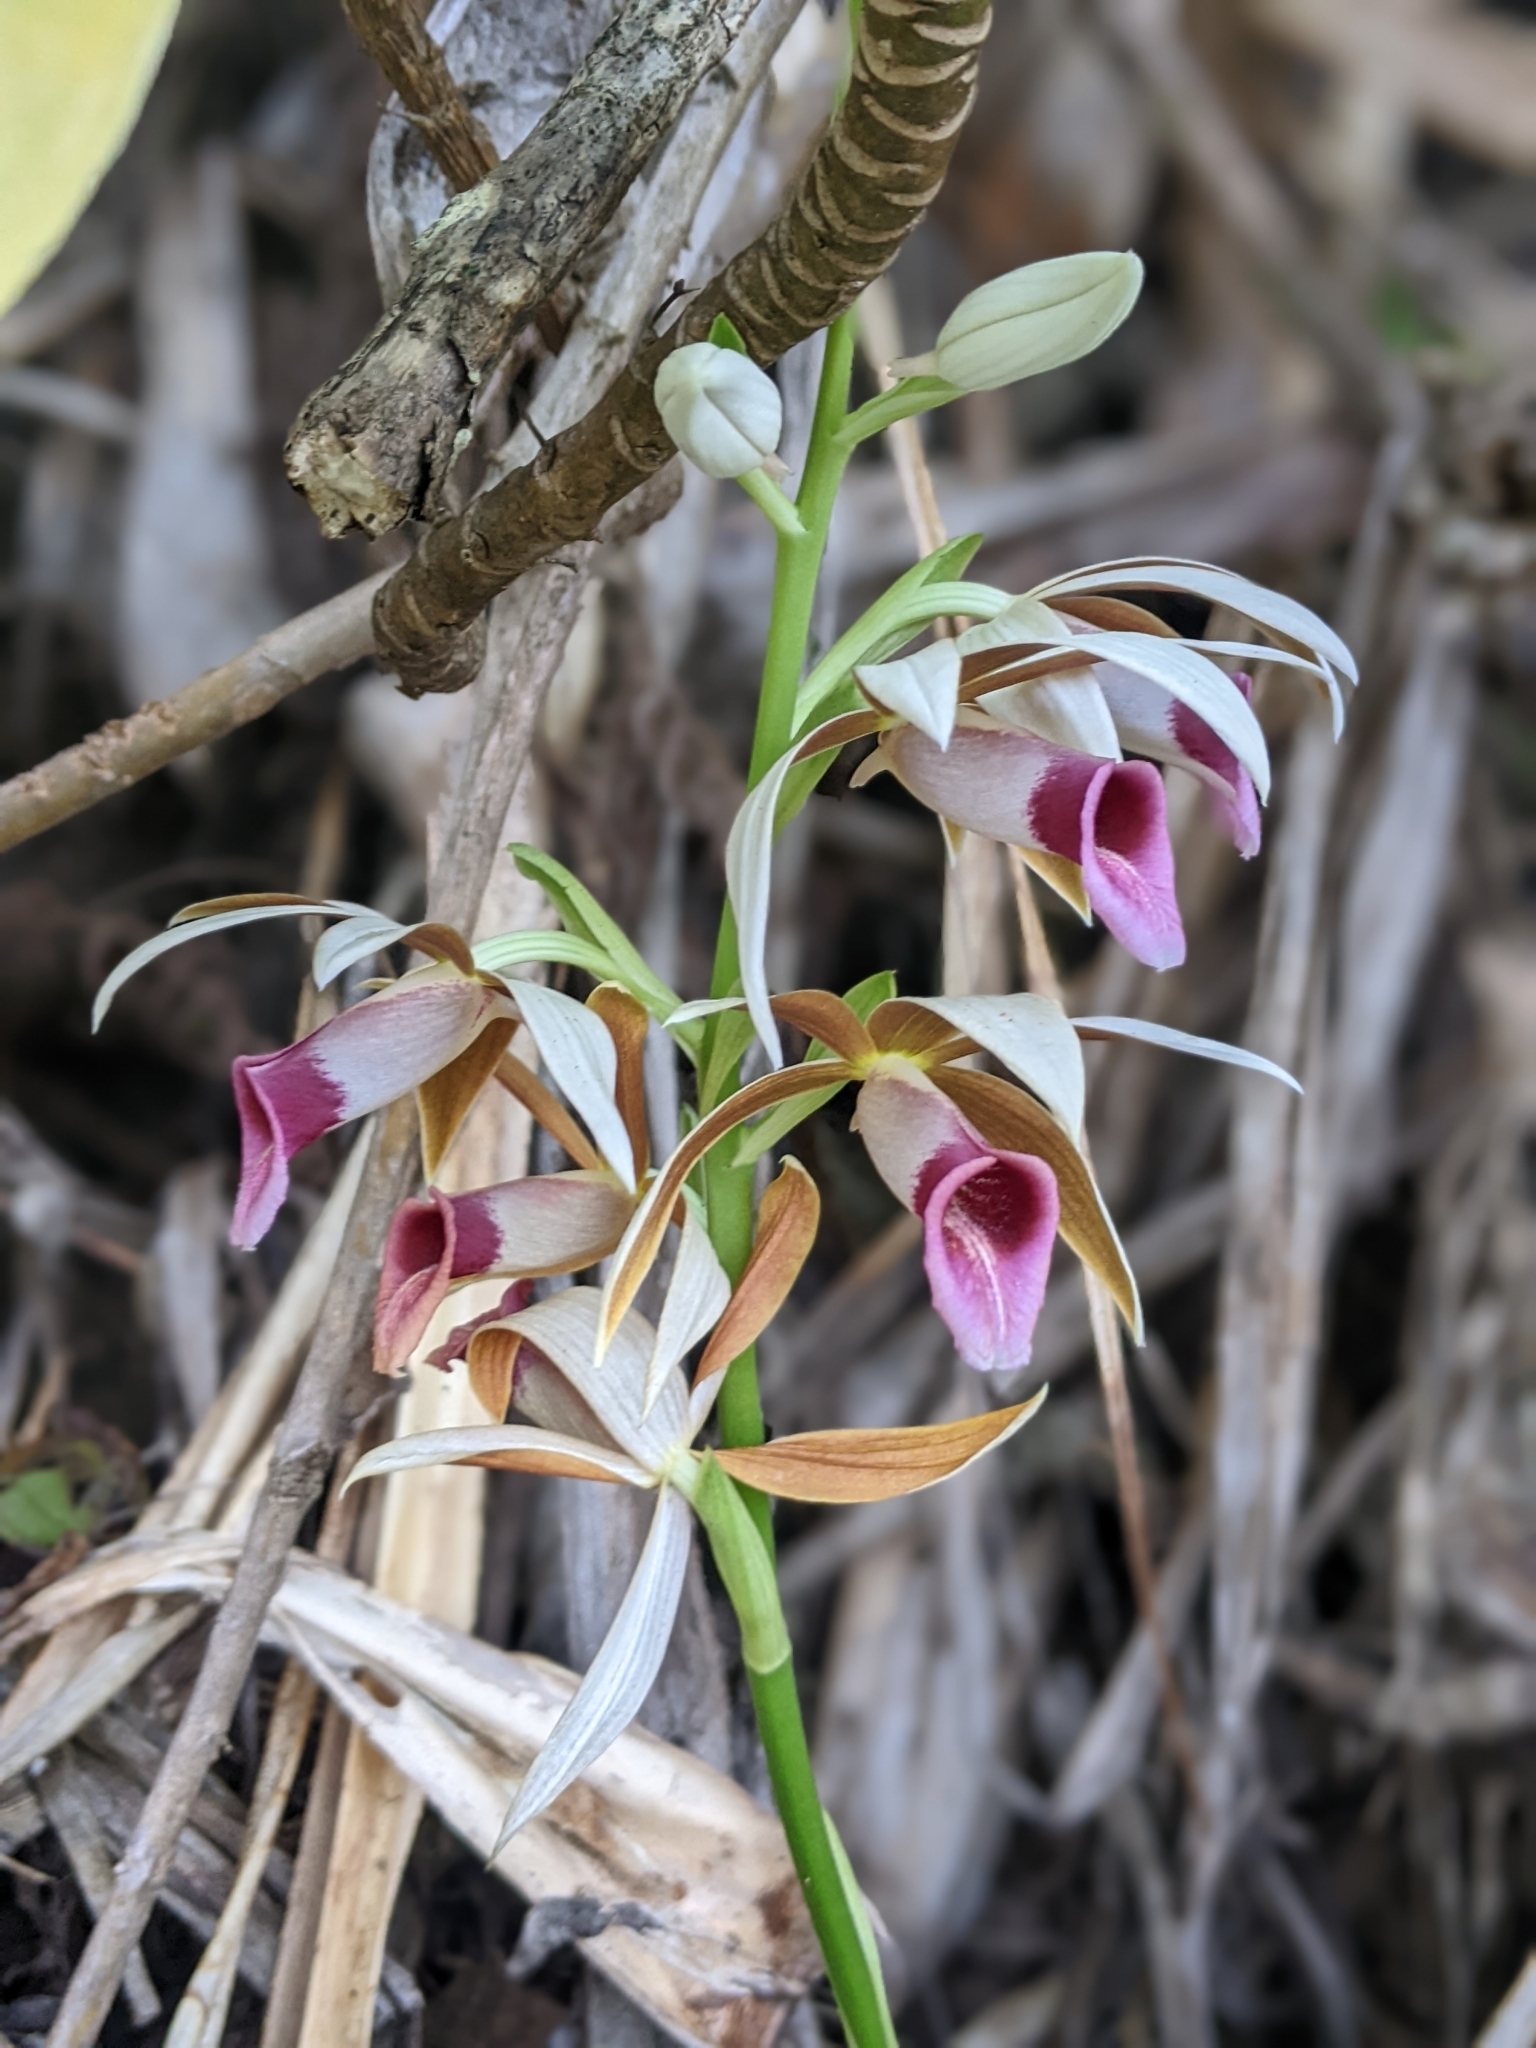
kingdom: Plantae
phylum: Tracheophyta
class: Liliopsida
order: Asparagales
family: Orchidaceae
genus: Calanthe
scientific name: Calanthe tankervilleae
